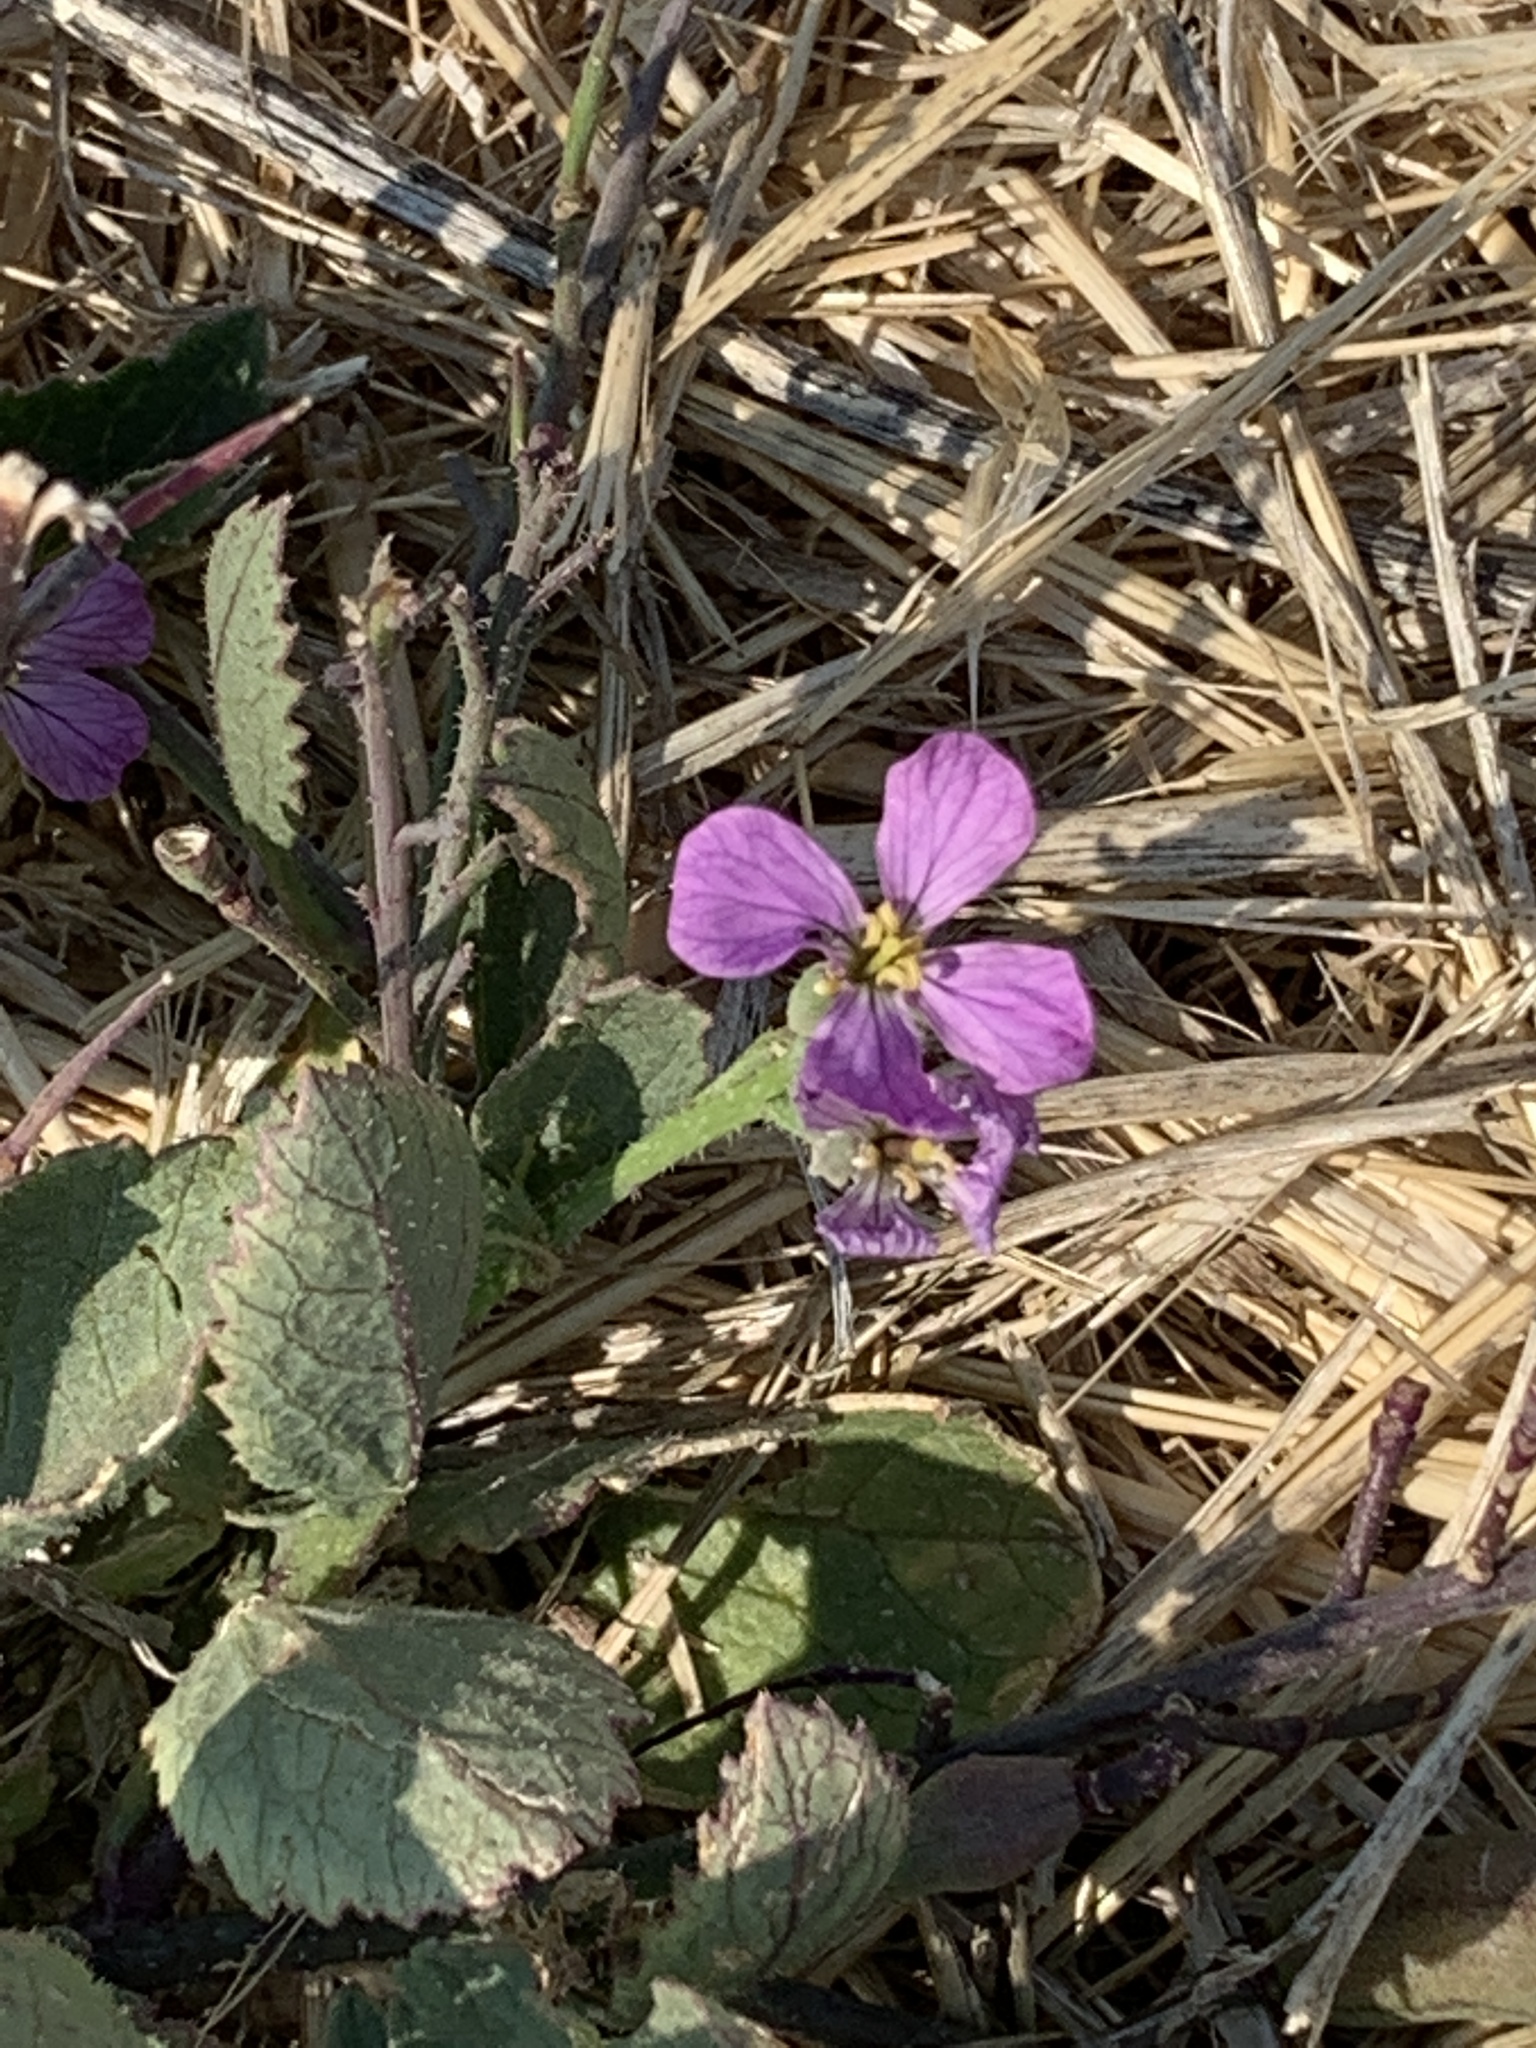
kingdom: Plantae
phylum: Tracheophyta
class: Magnoliopsida
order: Brassicales
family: Brassicaceae
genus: Raphanus
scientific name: Raphanus sativus
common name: Cultivated radish
